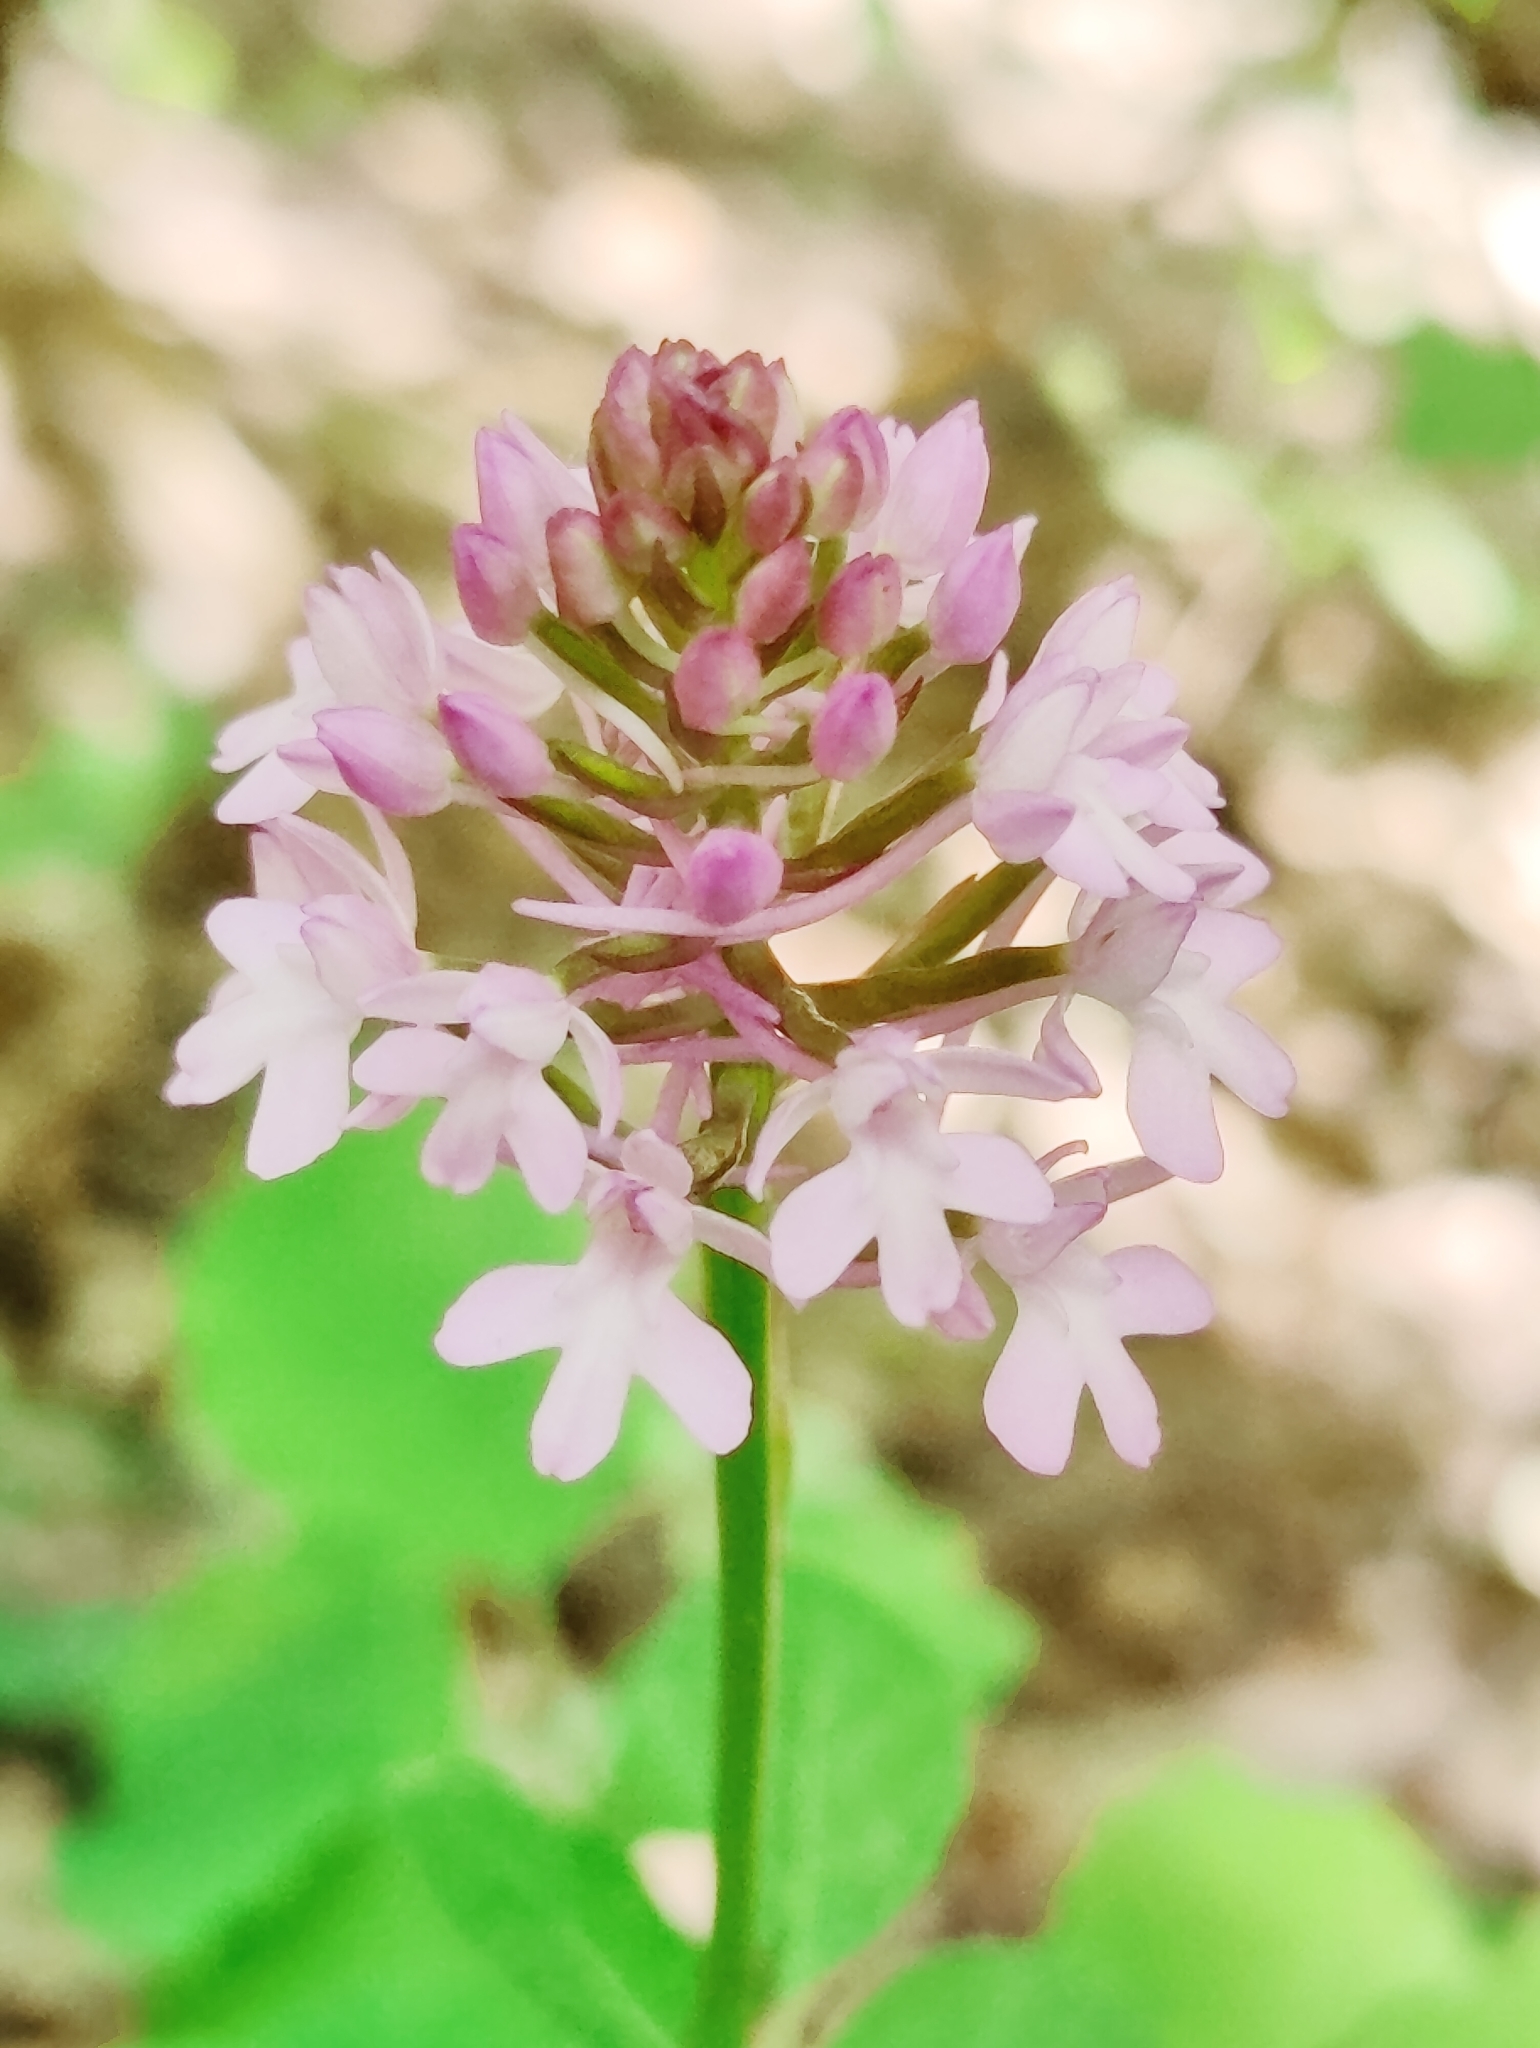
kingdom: Plantae
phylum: Tracheophyta
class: Liliopsida
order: Asparagales
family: Orchidaceae
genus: Anacamptis
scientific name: Anacamptis pyramidalis
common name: Pyramidal orchid
